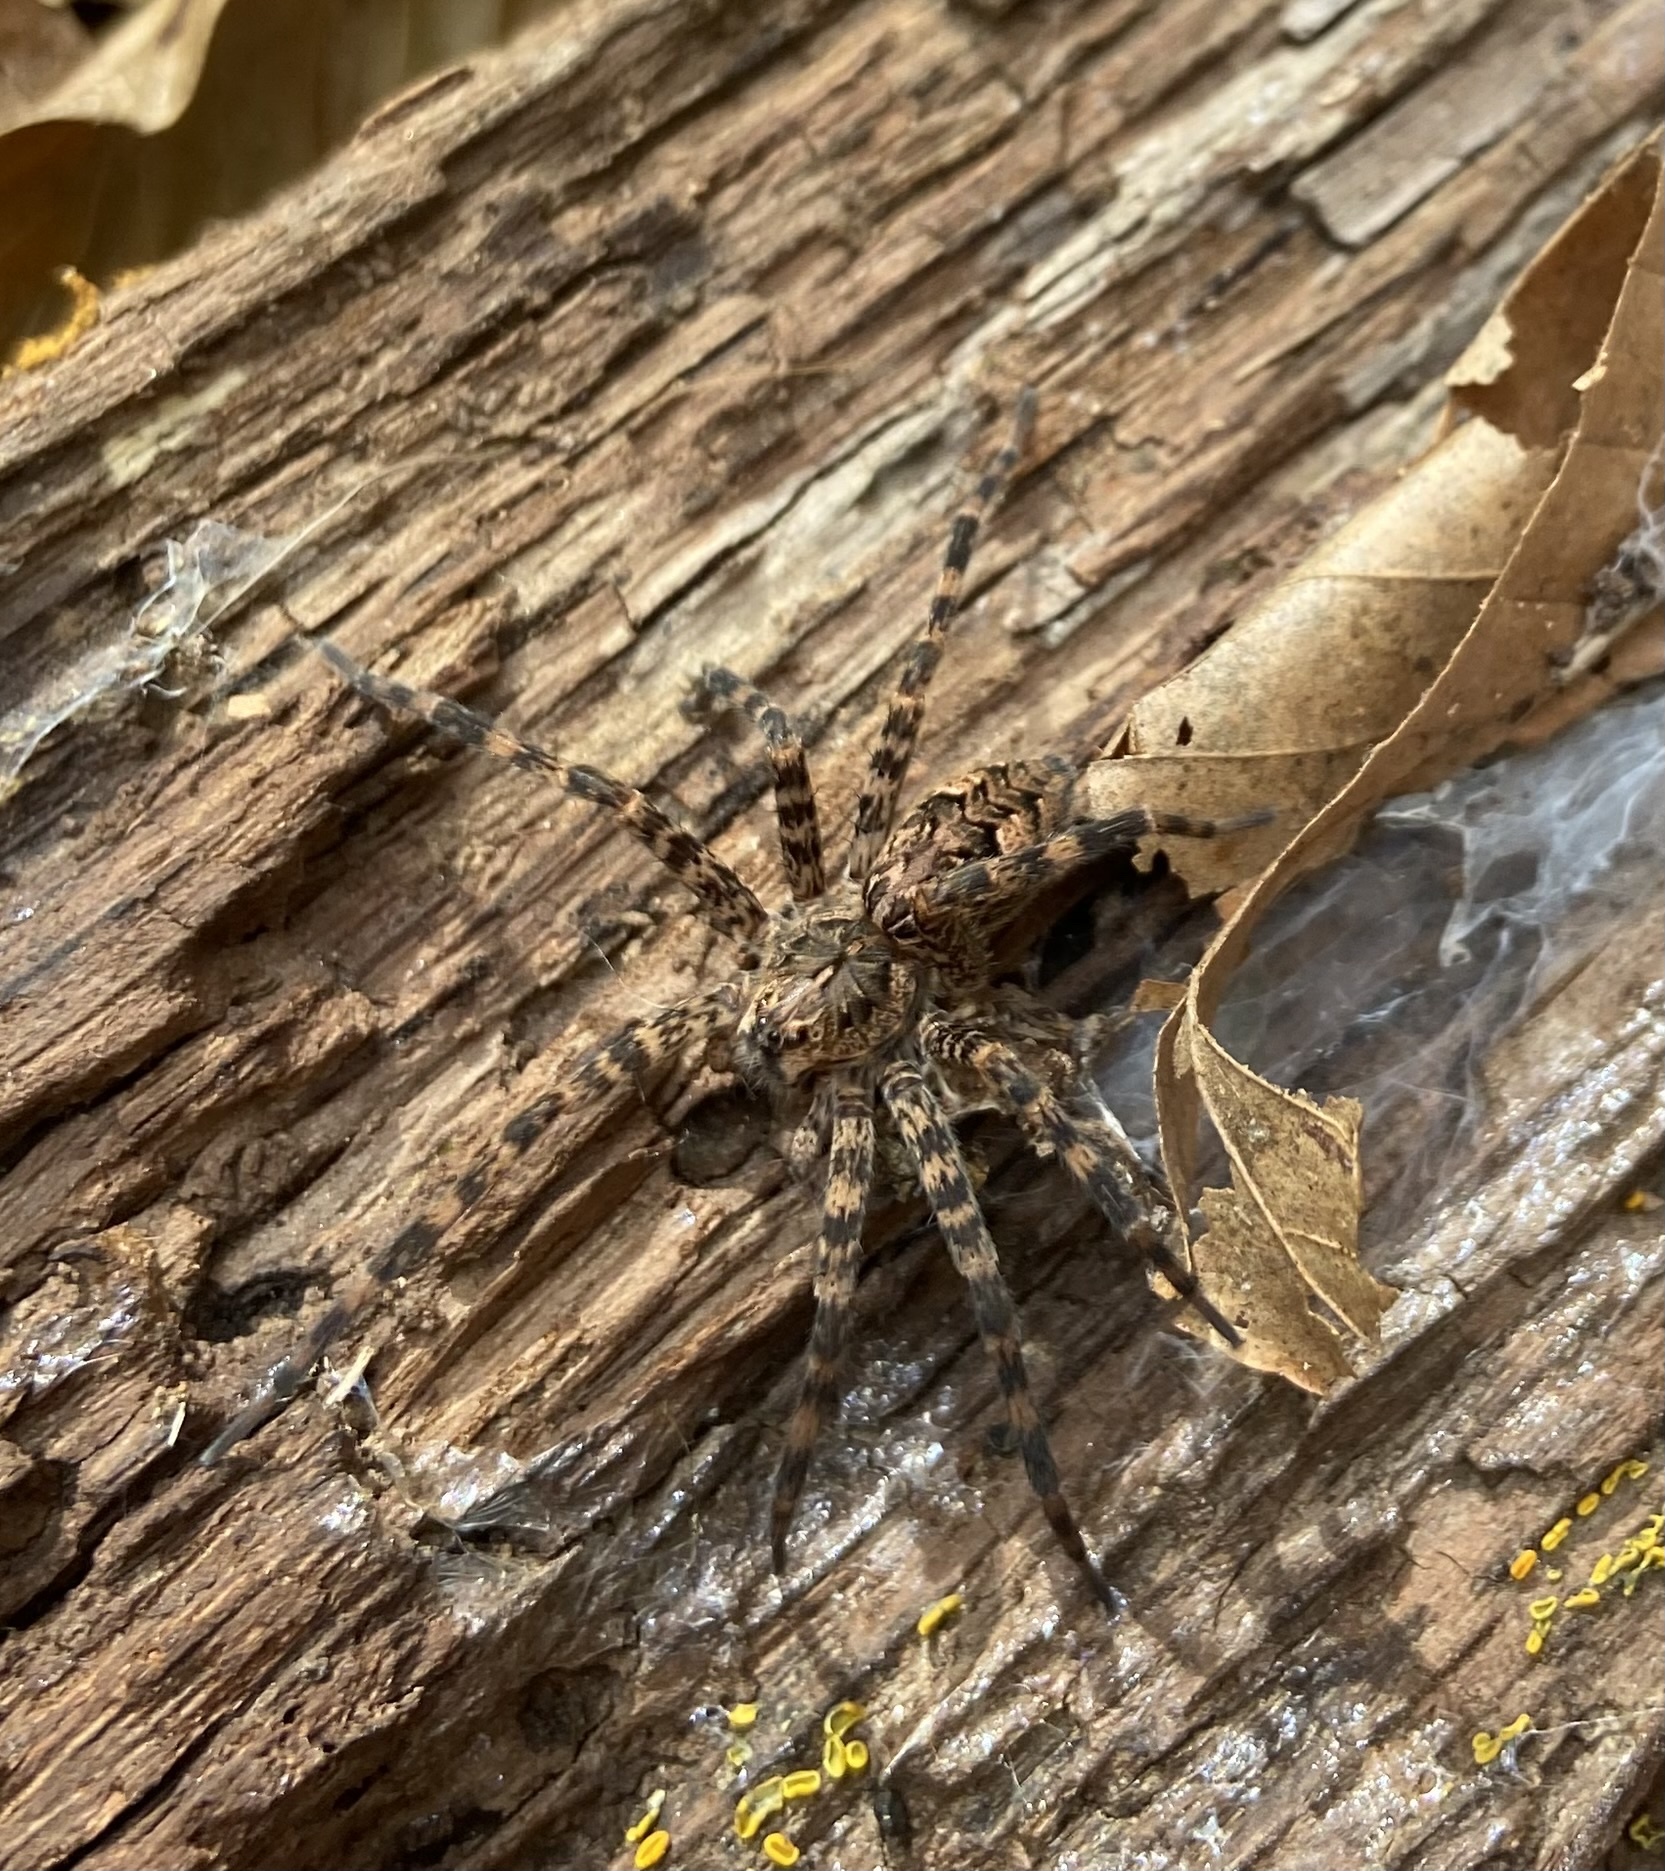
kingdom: Animalia
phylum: Arthropoda
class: Arachnida
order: Araneae
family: Pisauridae
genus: Dolomedes
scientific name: Dolomedes tenebrosus
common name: Dark fishing spider
